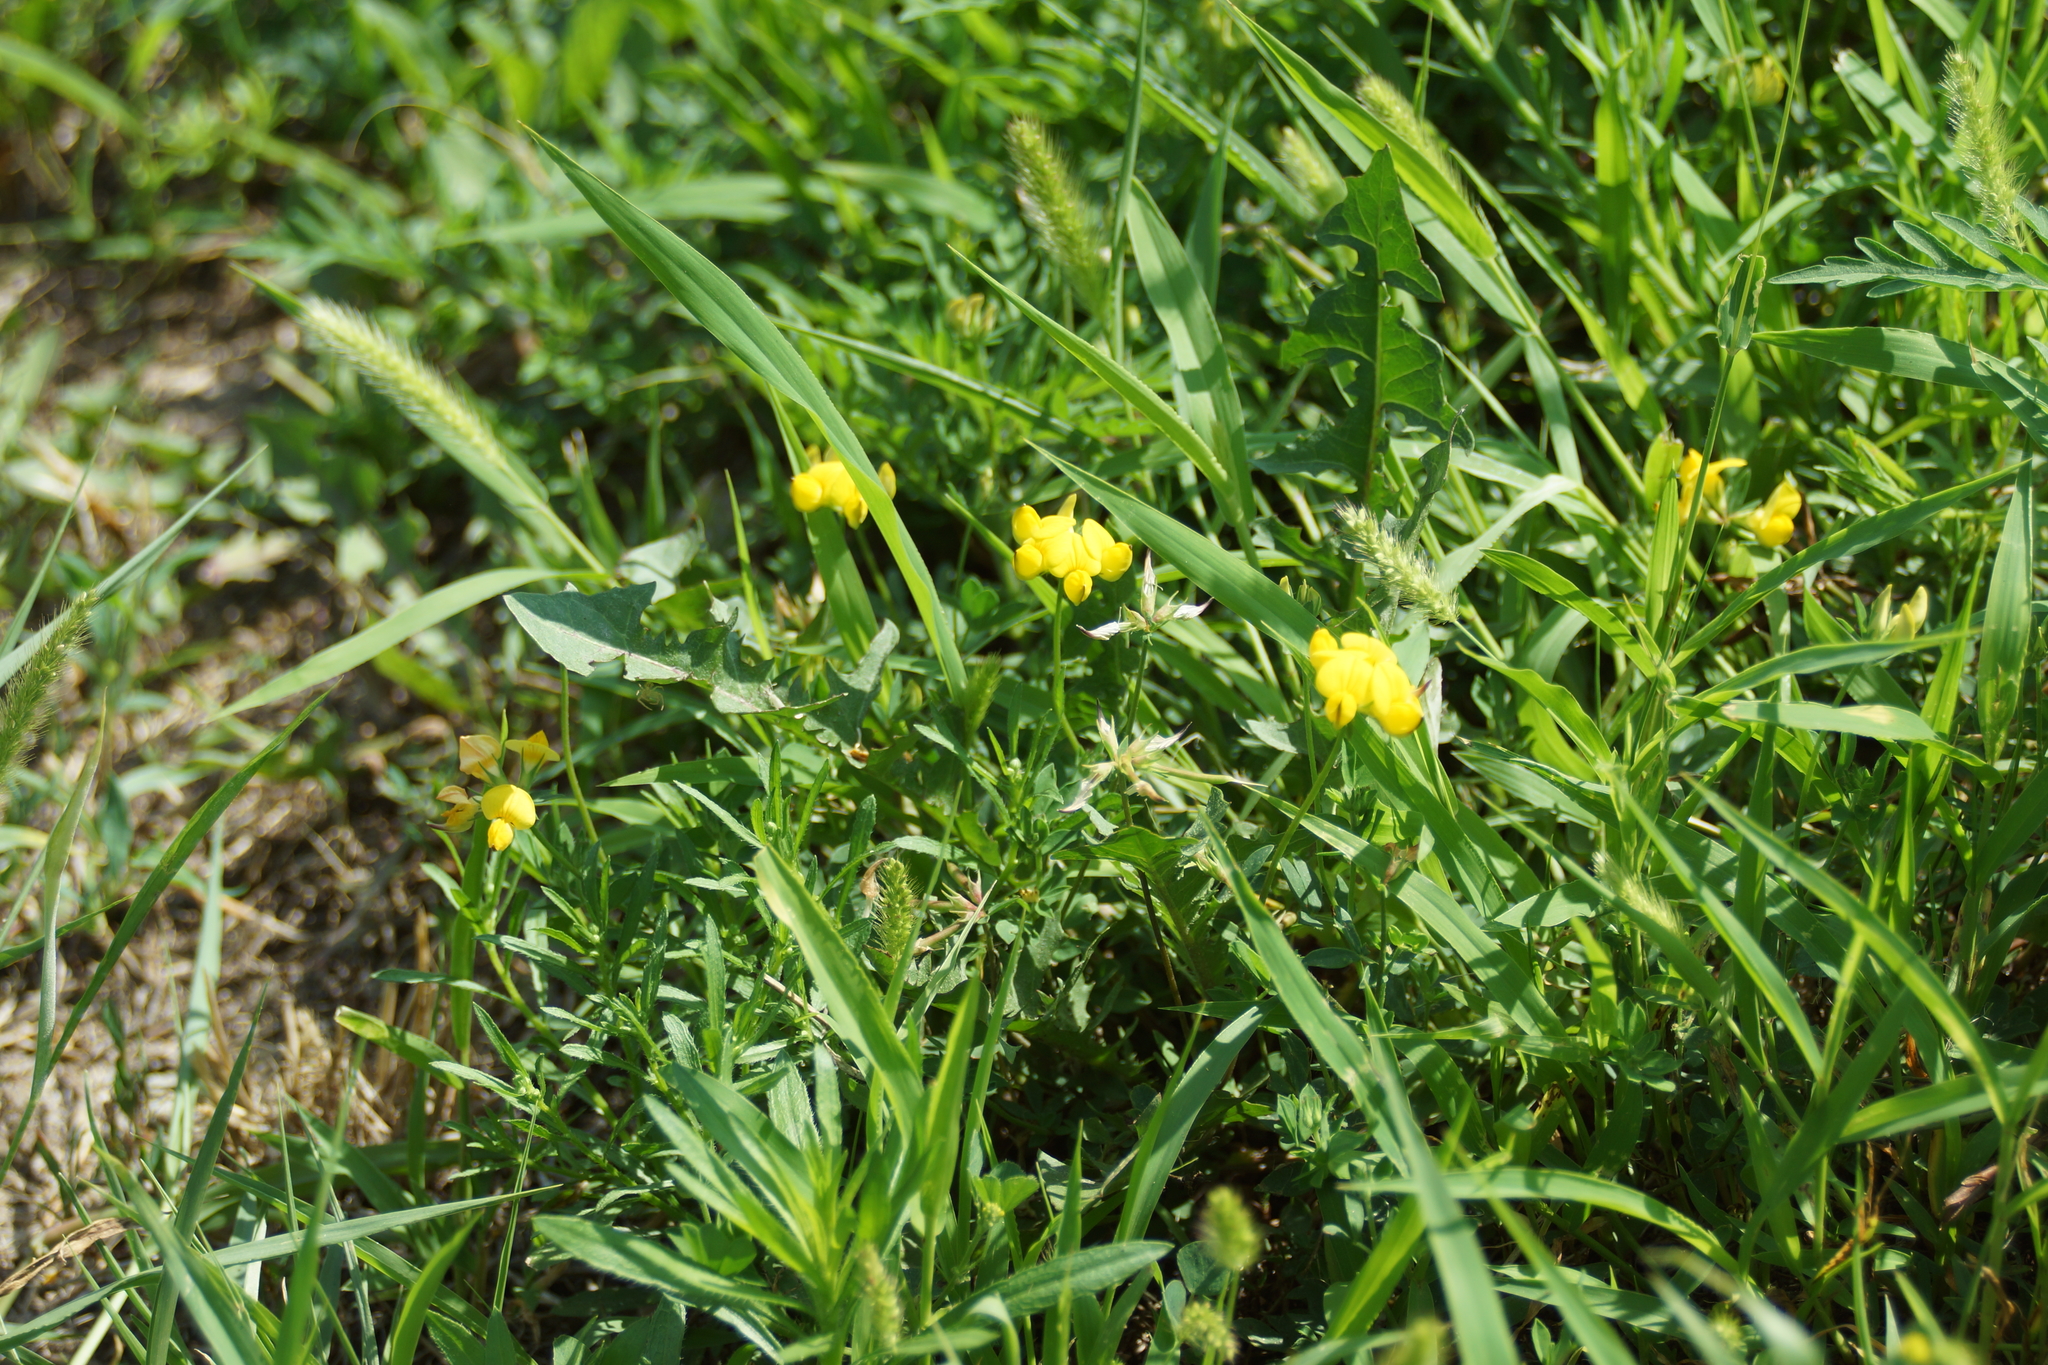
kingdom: Plantae
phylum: Tracheophyta
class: Magnoliopsida
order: Fabales
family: Fabaceae
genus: Lotus
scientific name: Lotus corniculatus
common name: Common bird's-foot-trefoil
